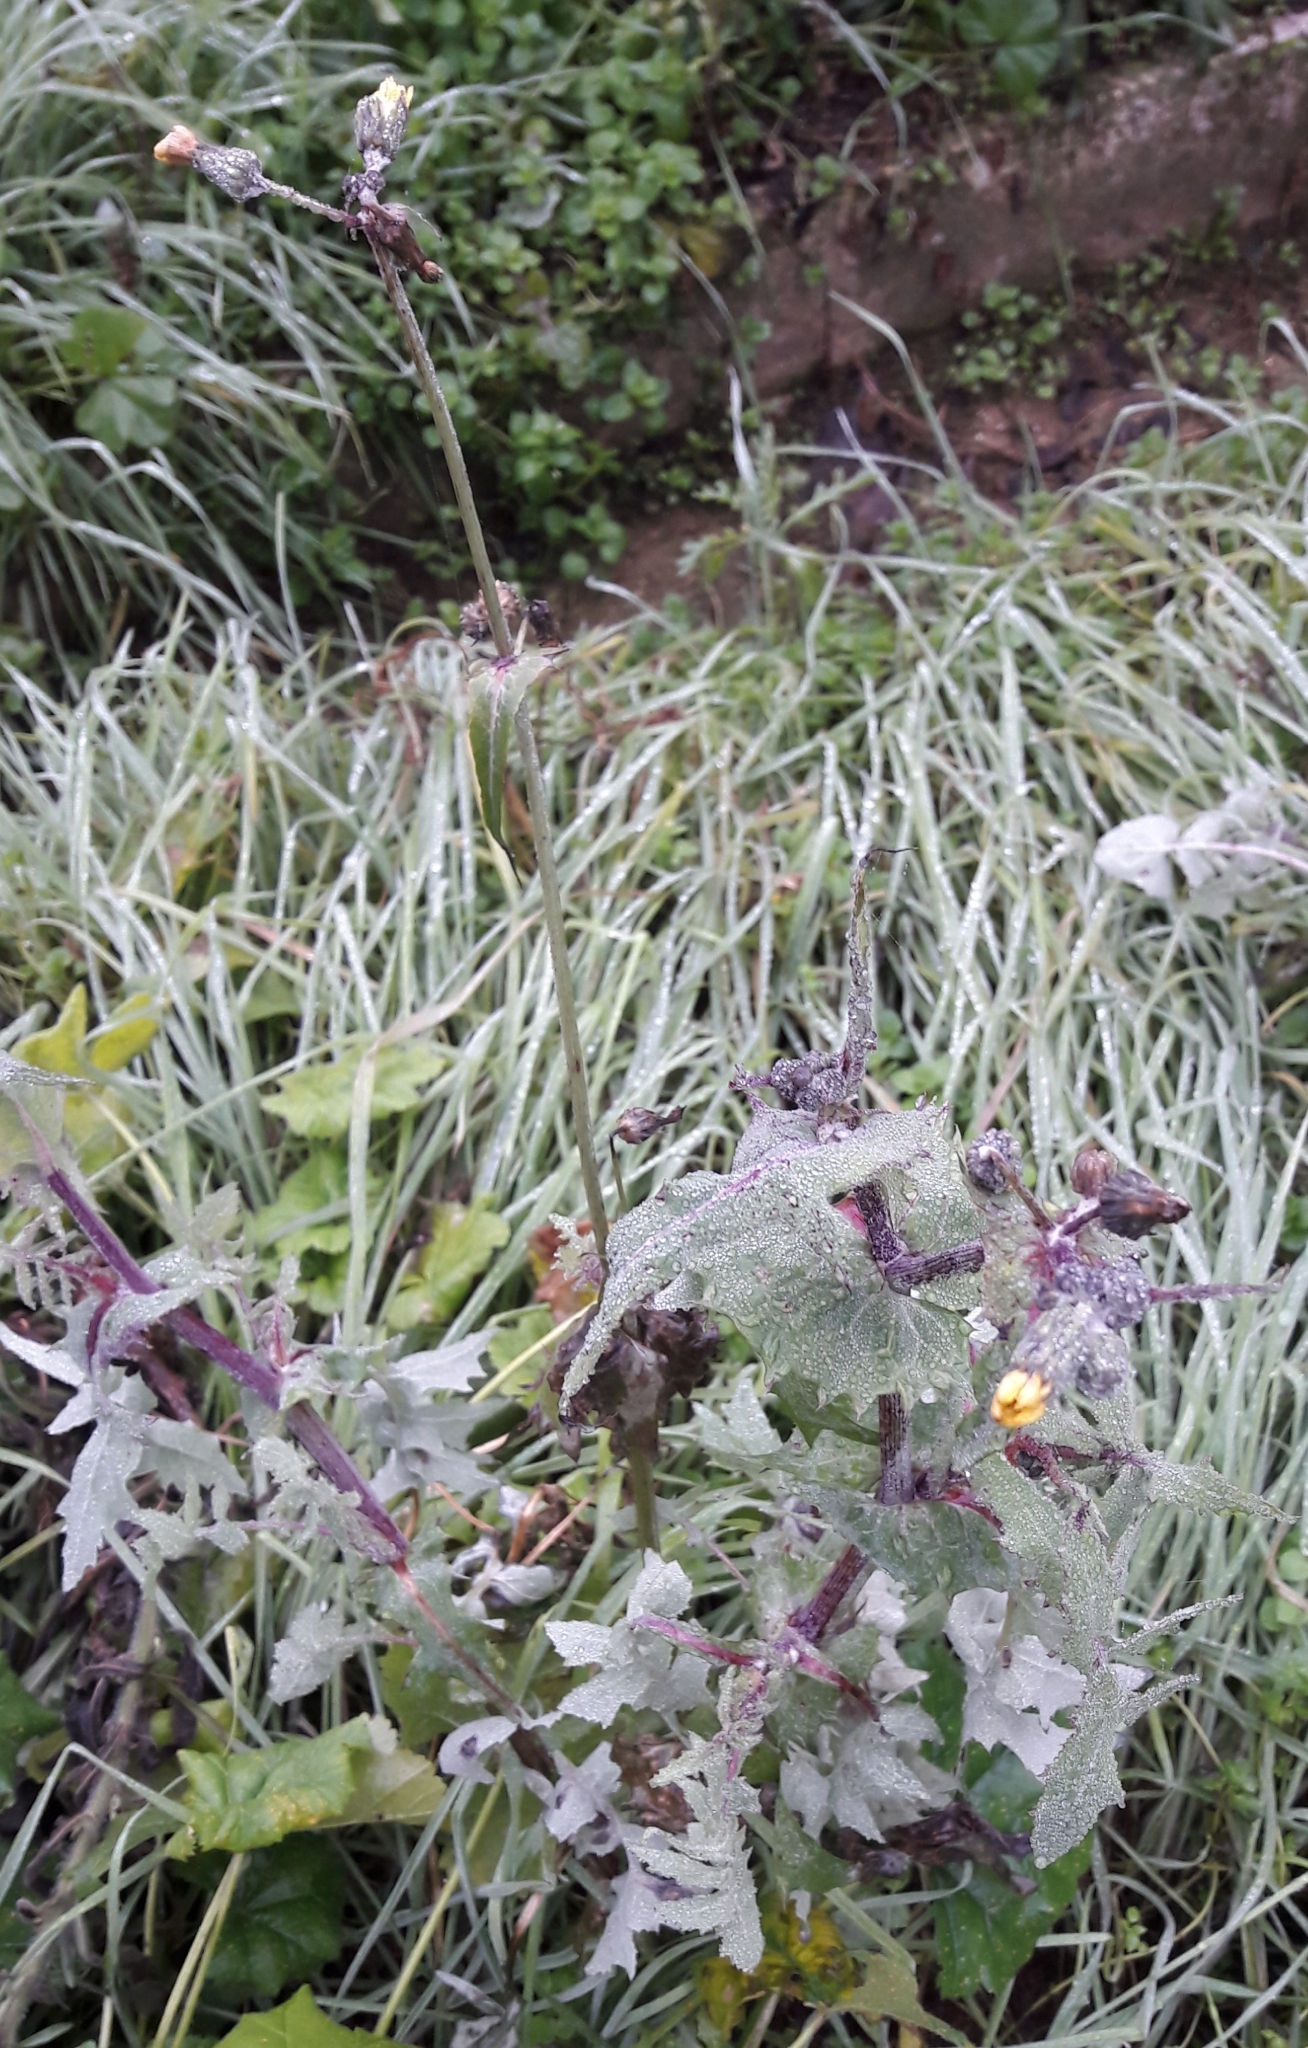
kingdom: Plantae
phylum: Tracheophyta
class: Magnoliopsida
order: Asterales
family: Asteraceae
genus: Sonchus
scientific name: Sonchus oleraceus
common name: Common sowthistle
